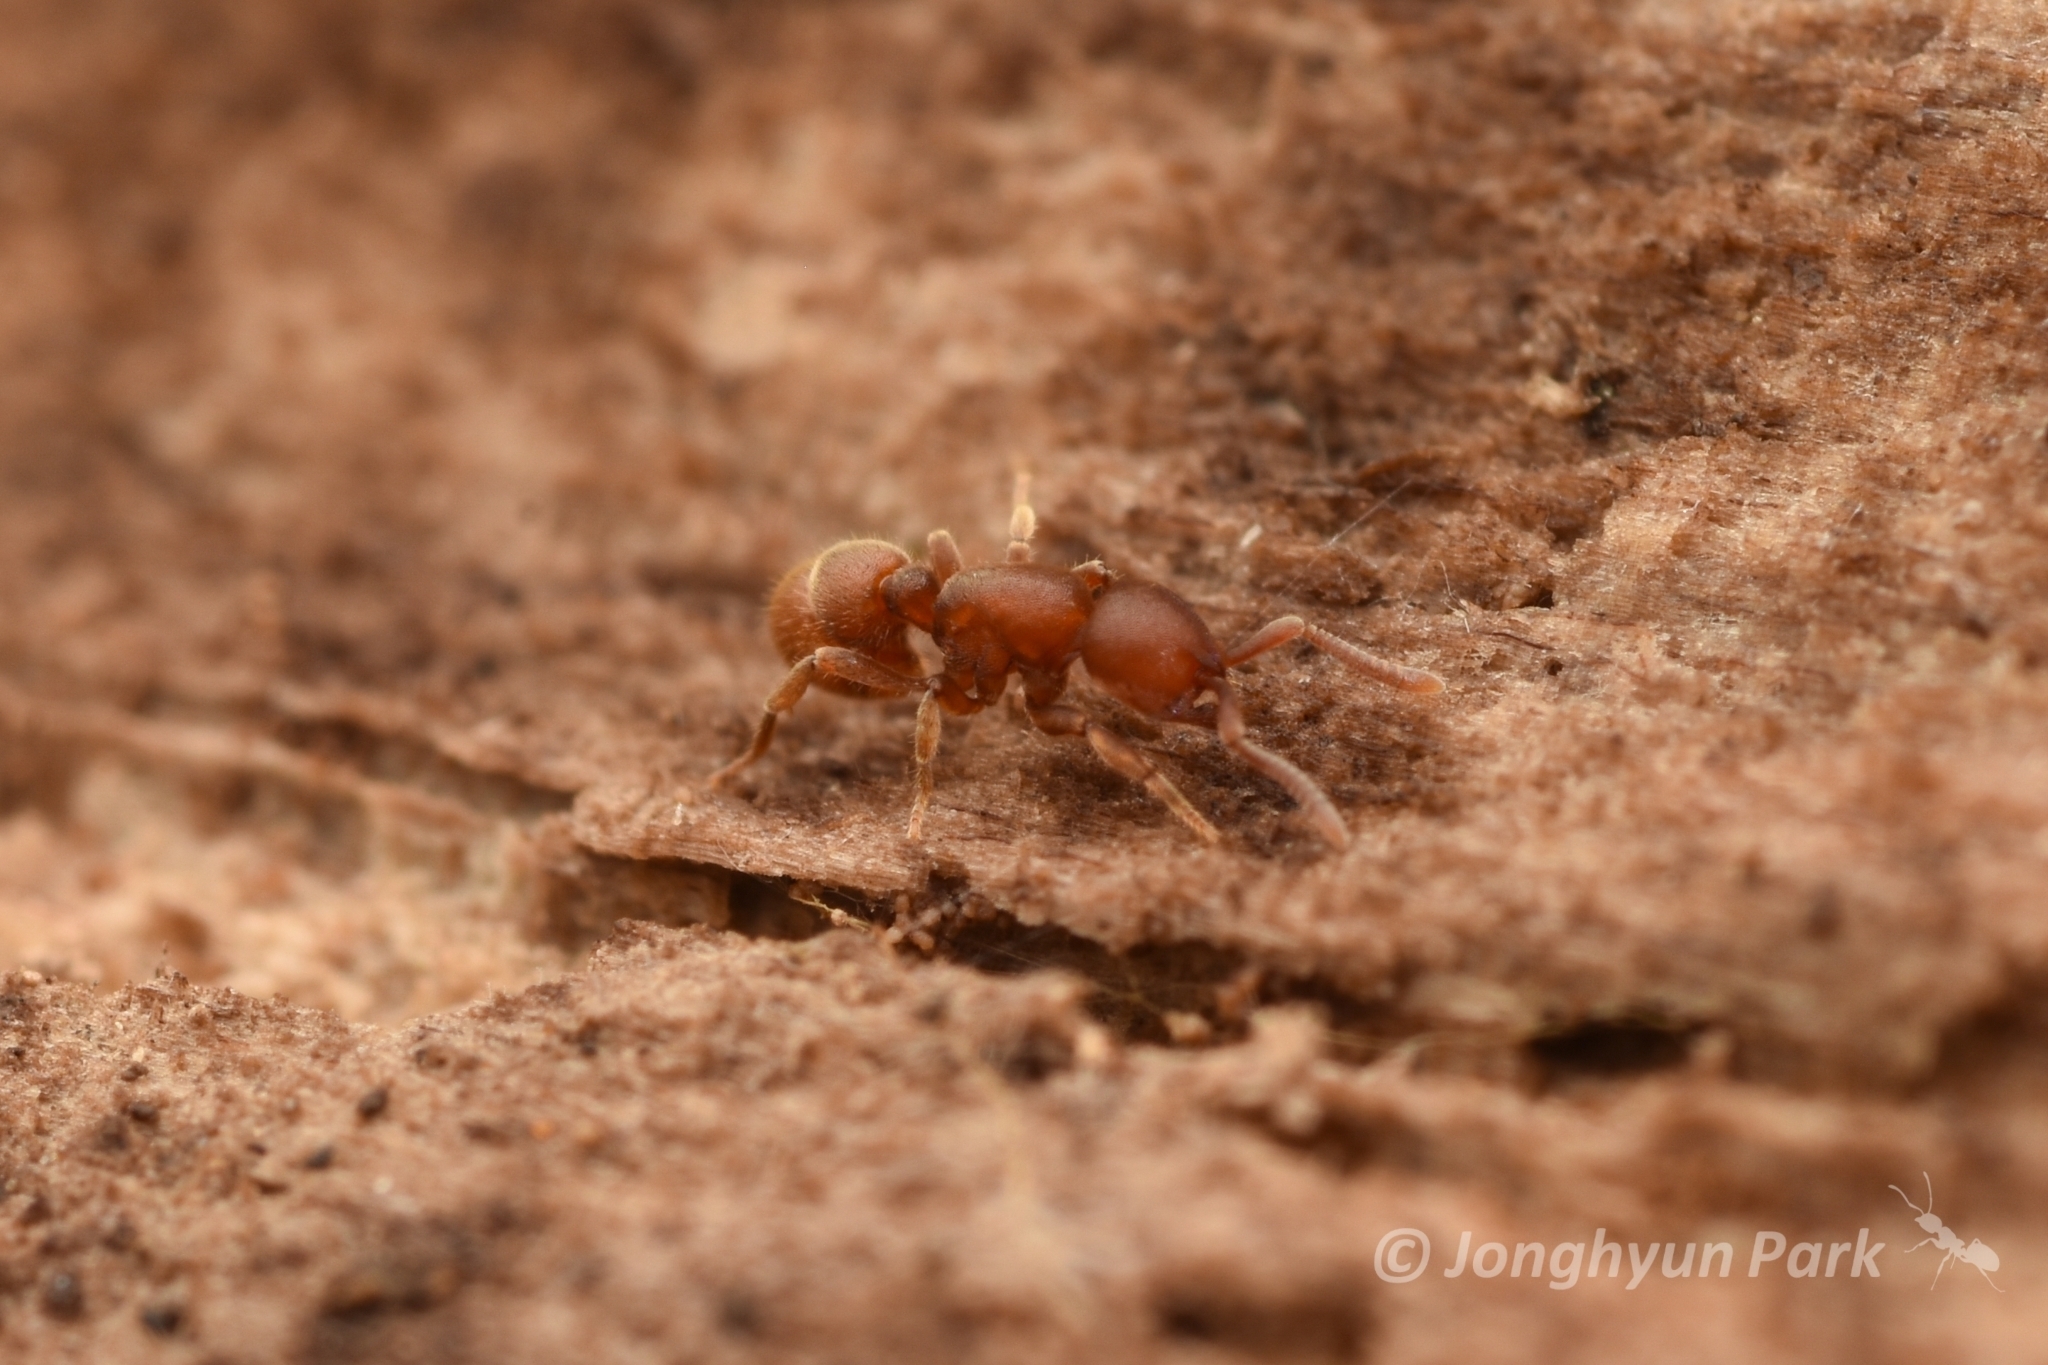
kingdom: Animalia
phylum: Arthropoda
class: Insecta
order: Hymenoptera
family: Formicidae
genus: Proceratium
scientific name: Proceratium itoi
